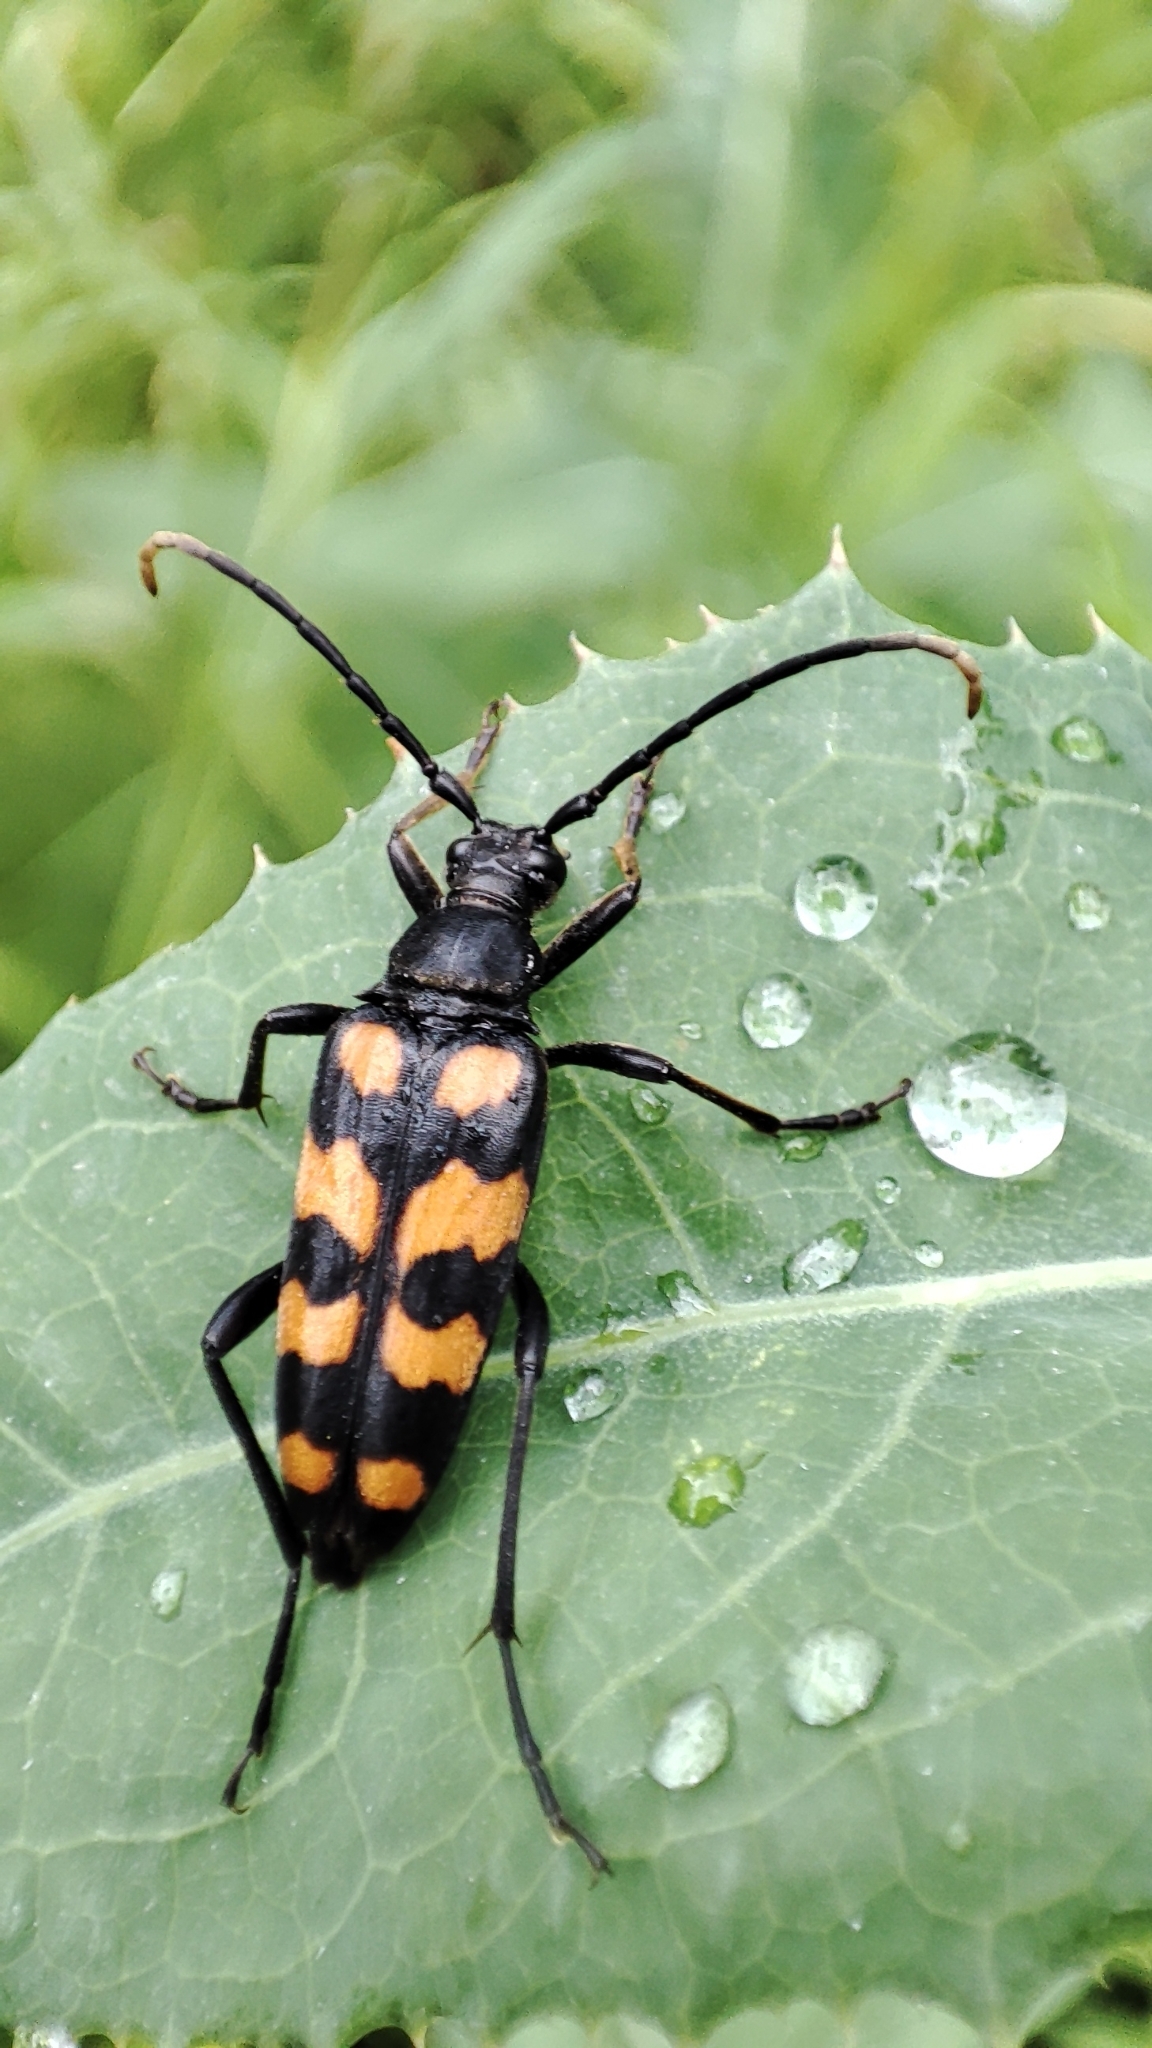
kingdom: Animalia
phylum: Arthropoda
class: Insecta
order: Coleoptera
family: Cerambycidae
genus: Leptura
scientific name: Leptura quadrifasciata
